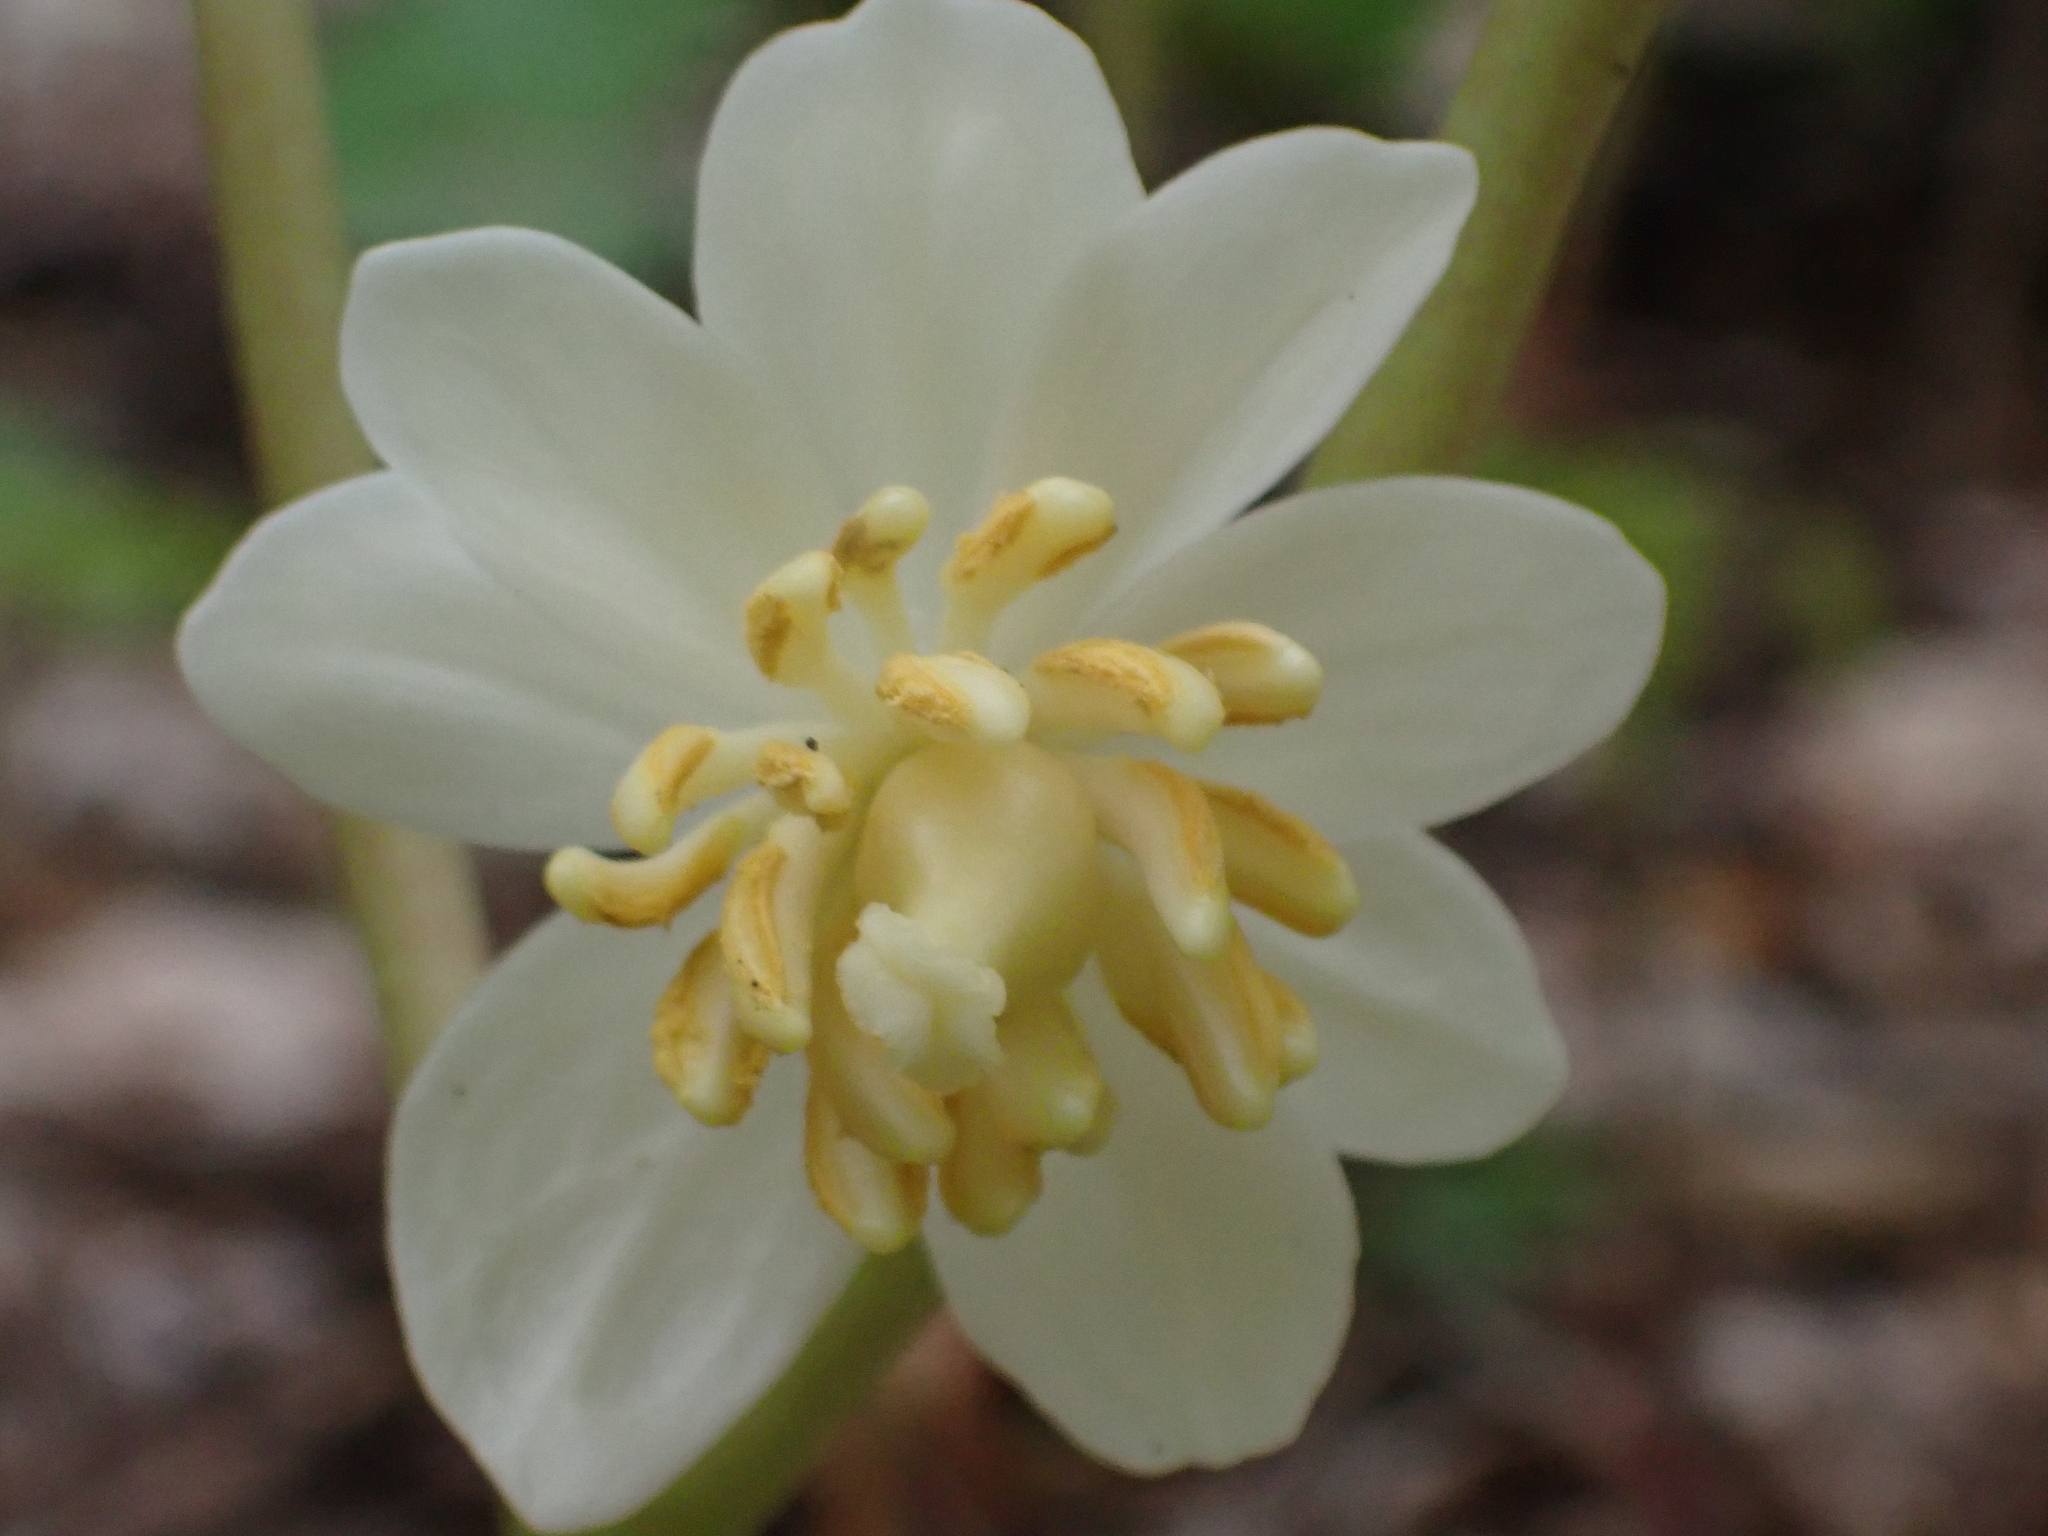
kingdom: Plantae
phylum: Tracheophyta
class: Magnoliopsida
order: Ranunculales
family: Berberidaceae
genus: Podophyllum
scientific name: Podophyllum peltatum
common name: Wild mandrake
